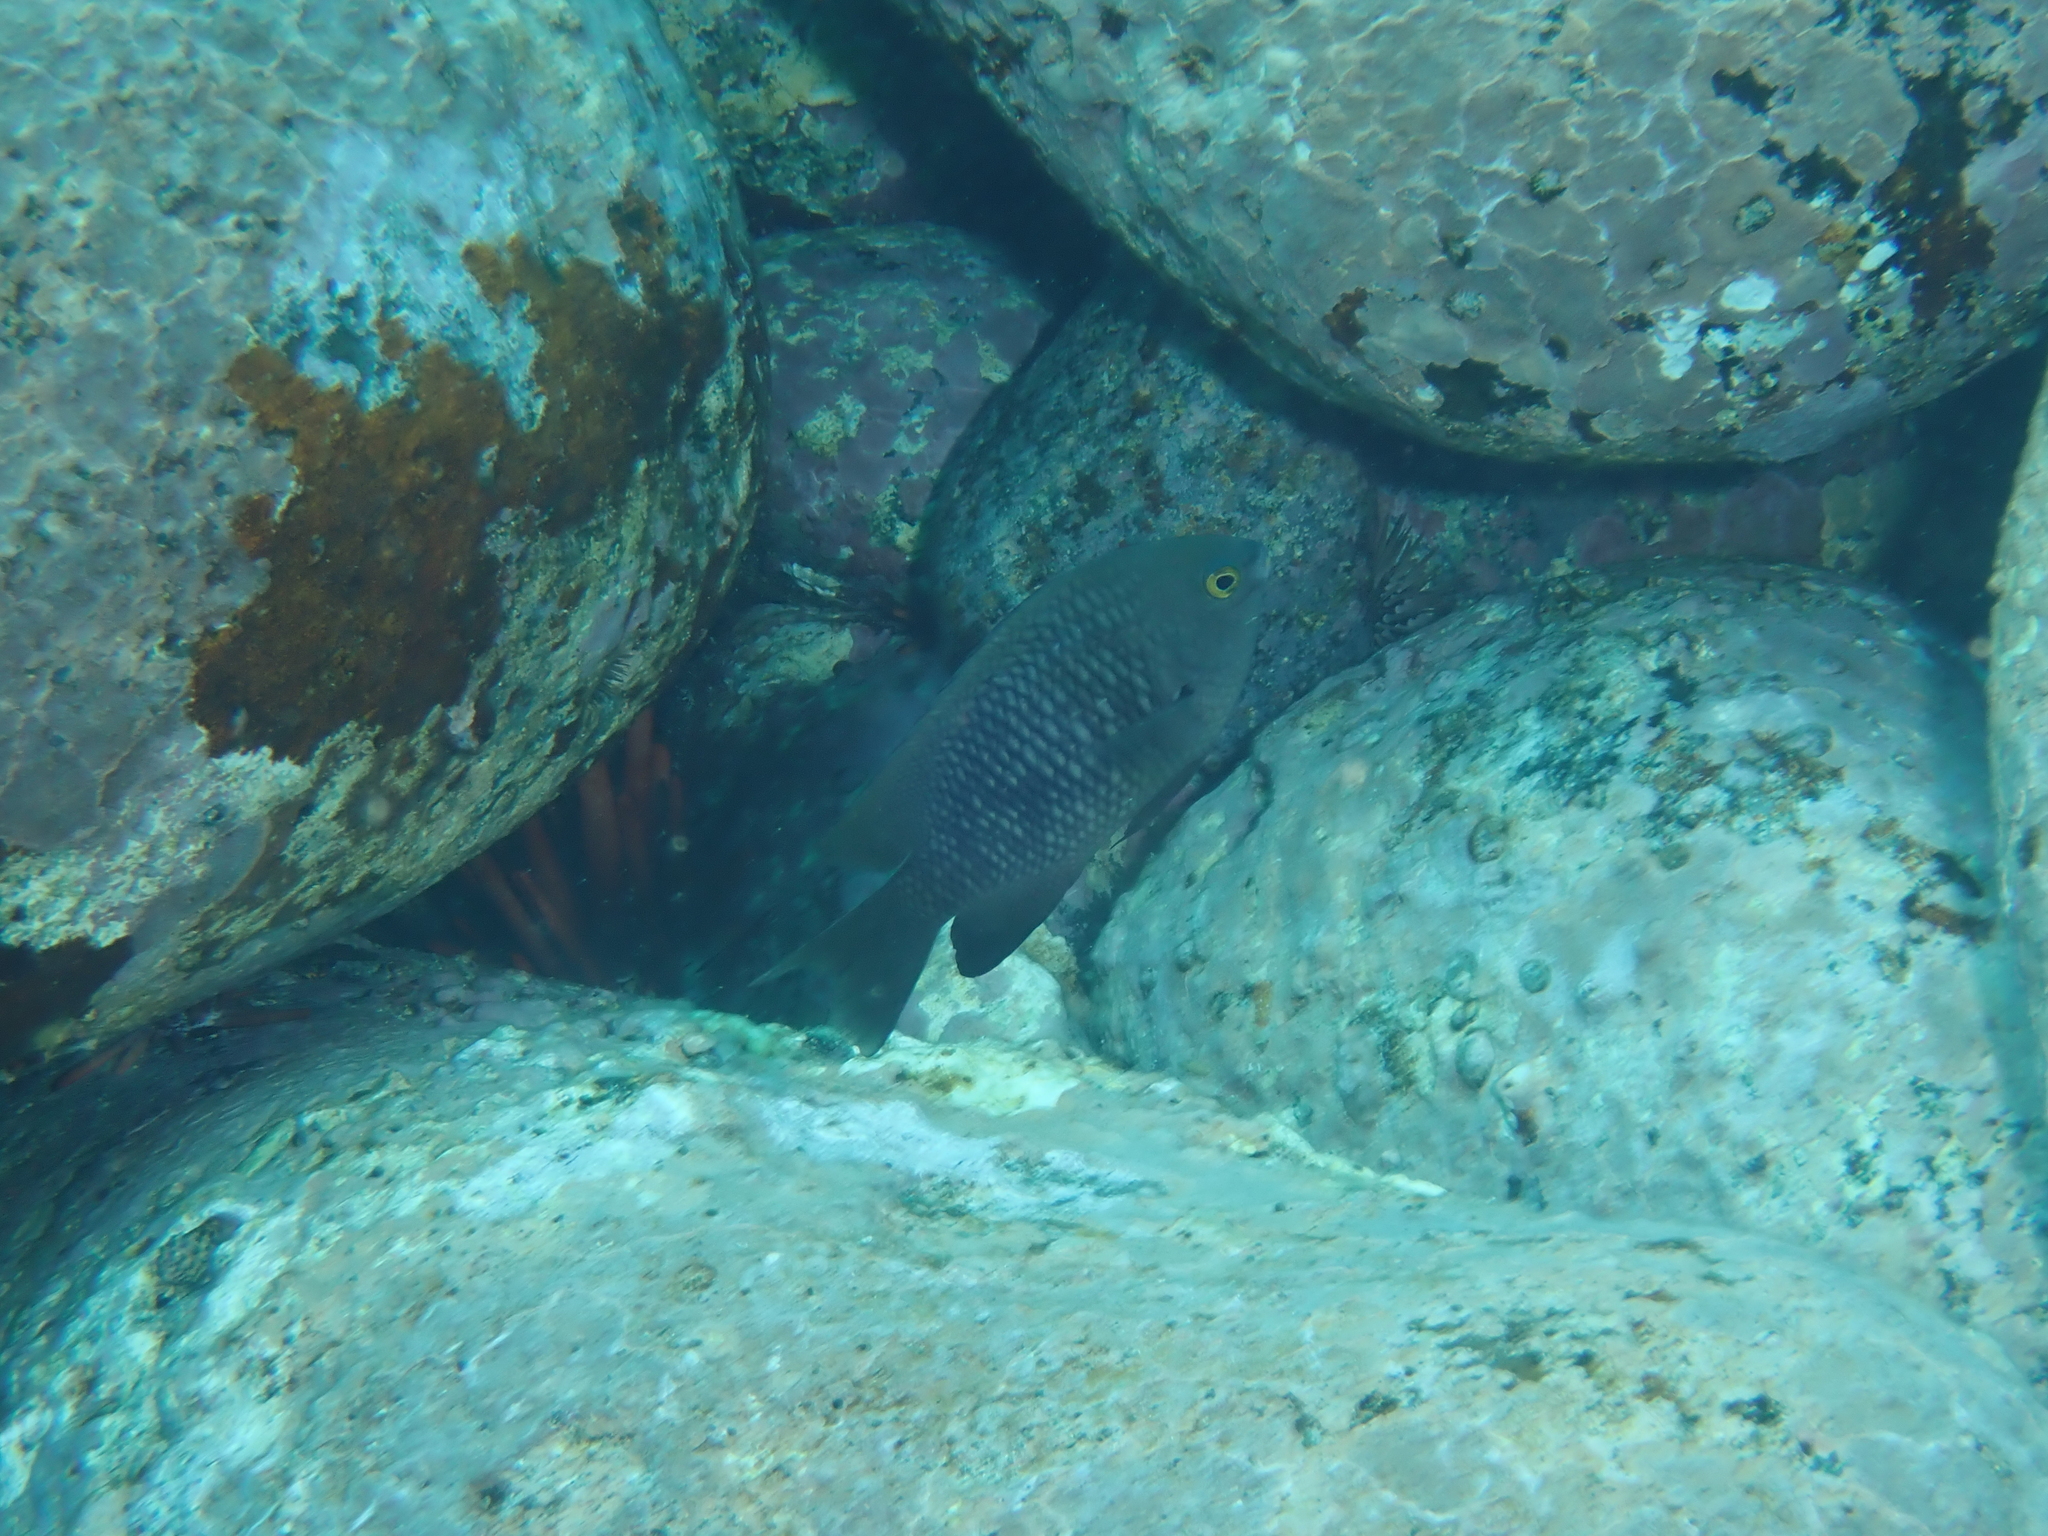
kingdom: Animalia
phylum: Chordata
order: Perciformes
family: Pomacentridae
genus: Stegastes
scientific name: Stegastes fasciolatus
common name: Pacific gregory
